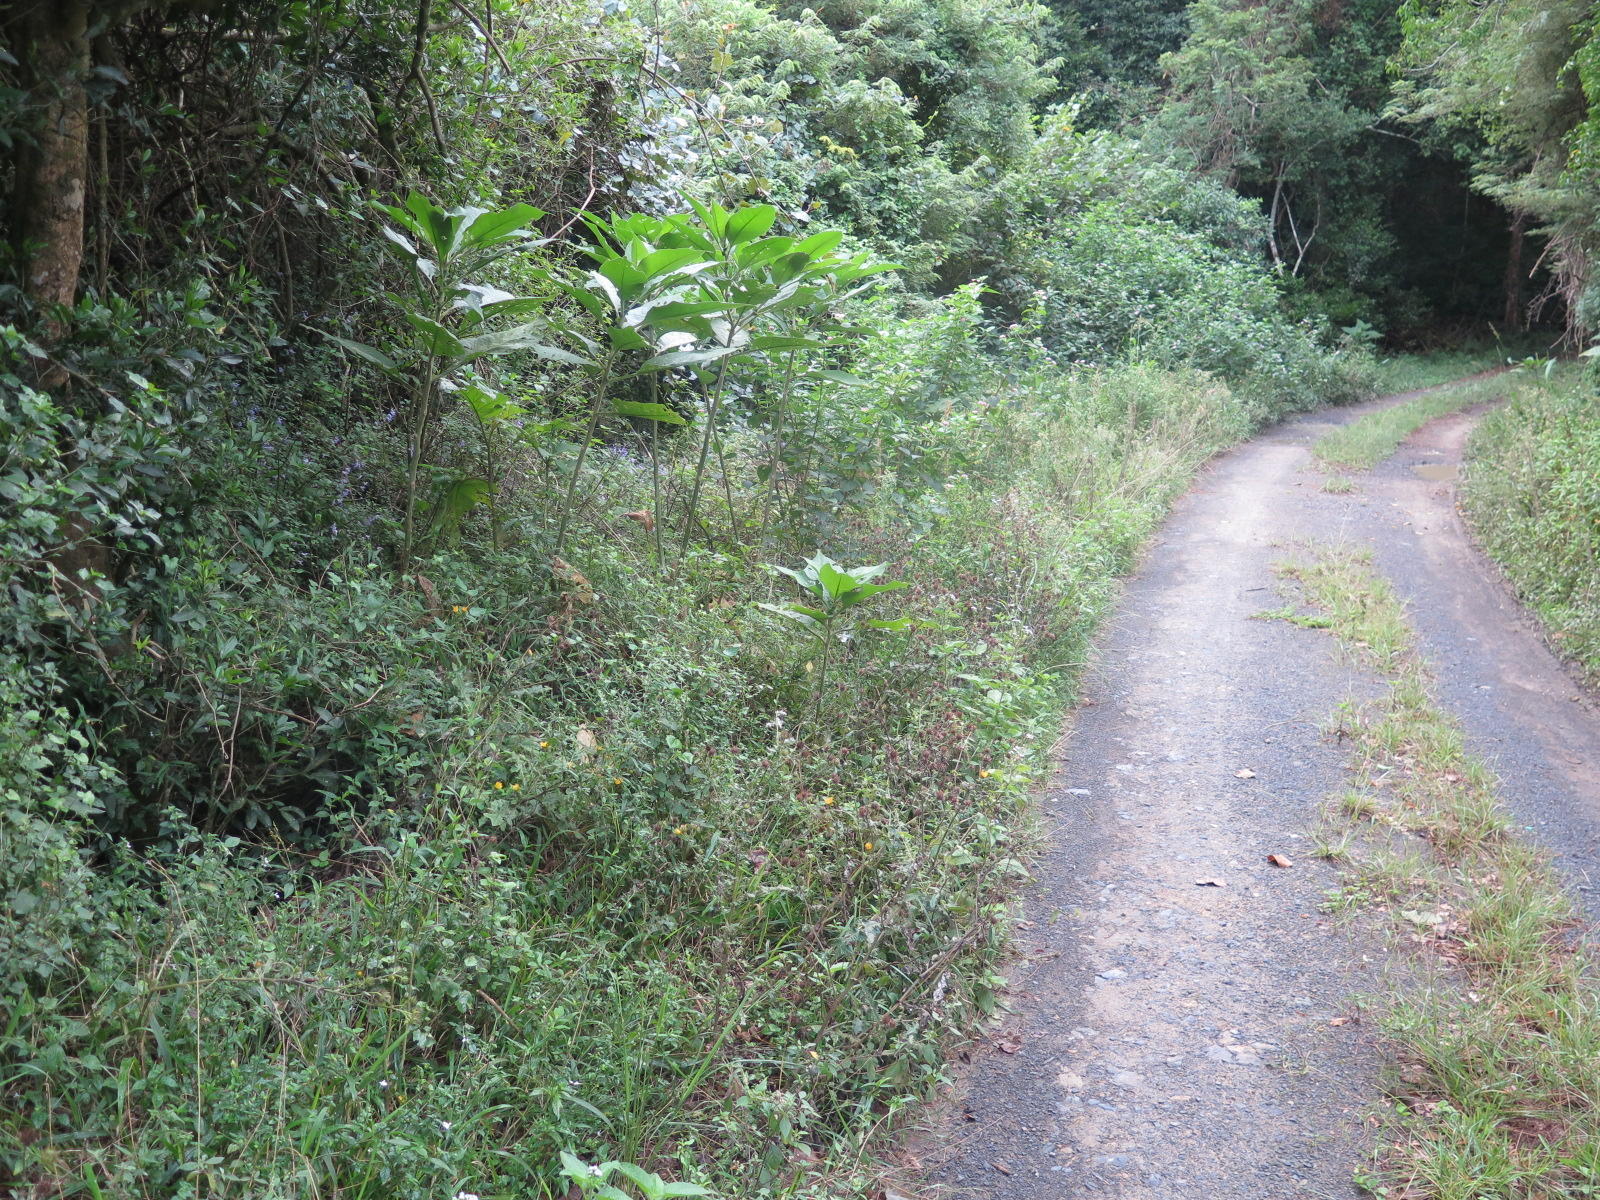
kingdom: Plantae
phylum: Tracheophyta
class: Magnoliopsida
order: Solanales
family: Solanaceae
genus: Solanum
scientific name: Solanum mauritianum
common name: Earleaf nightshade
